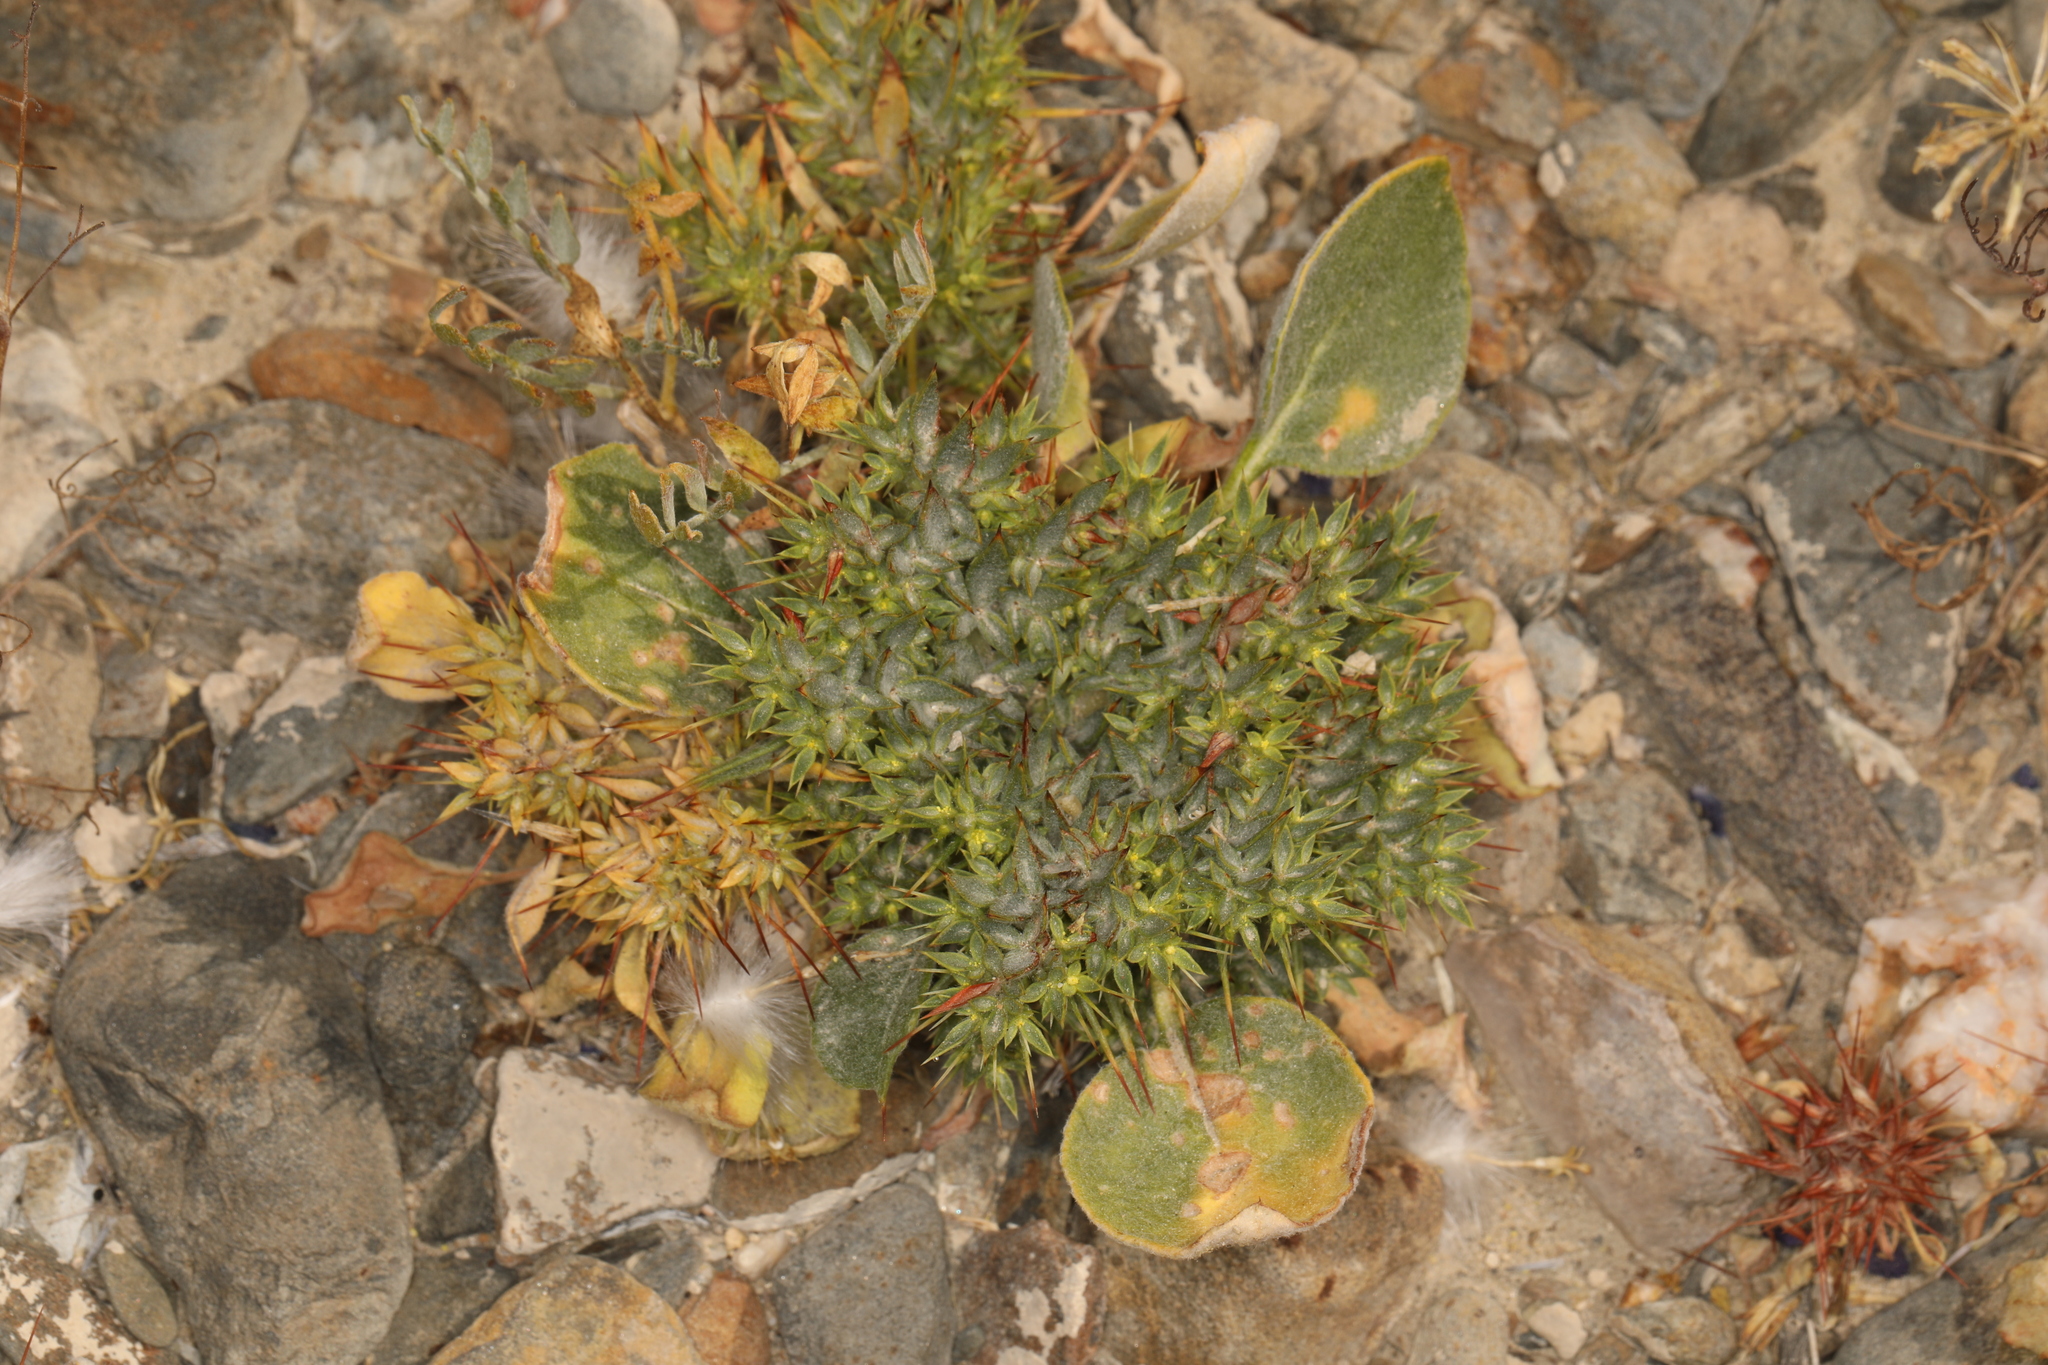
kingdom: Plantae
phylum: Tracheophyta
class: Magnoliopsida
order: Caryophyllales
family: Polygonaceae
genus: Chorizanthe
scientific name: Chorizanthe rigida
